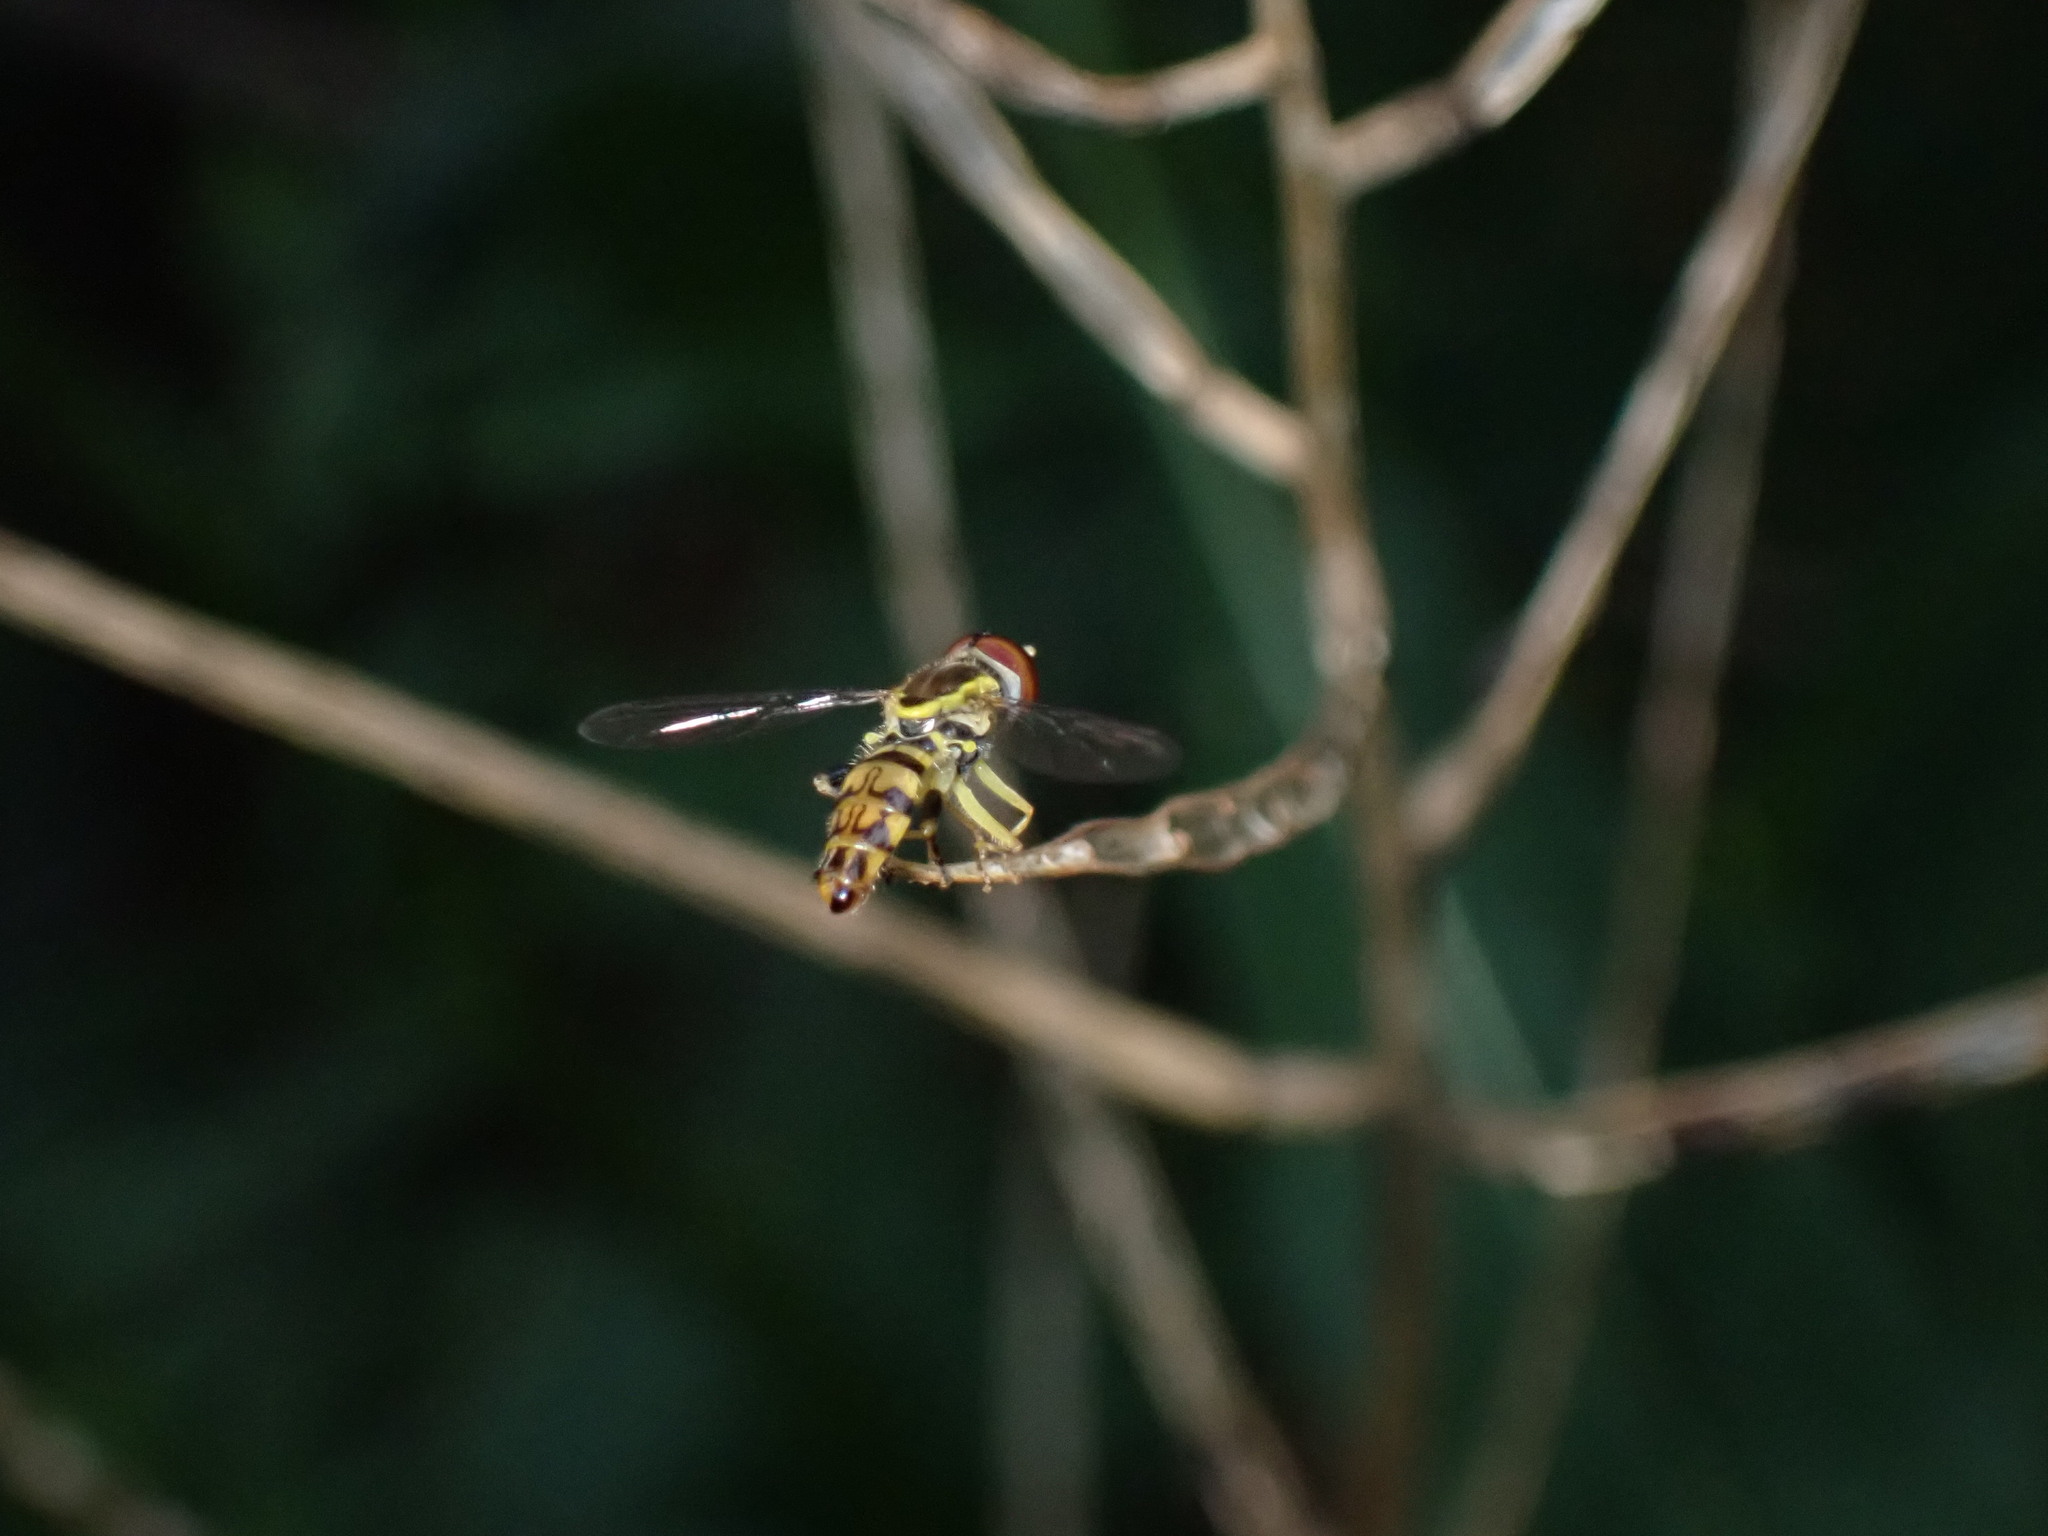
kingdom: Animalia
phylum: Arthropoda
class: Insecta
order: Diptera
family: Syrphidae
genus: Toxomerus
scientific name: Toxomerus geminatus
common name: Eastern calligrapher
